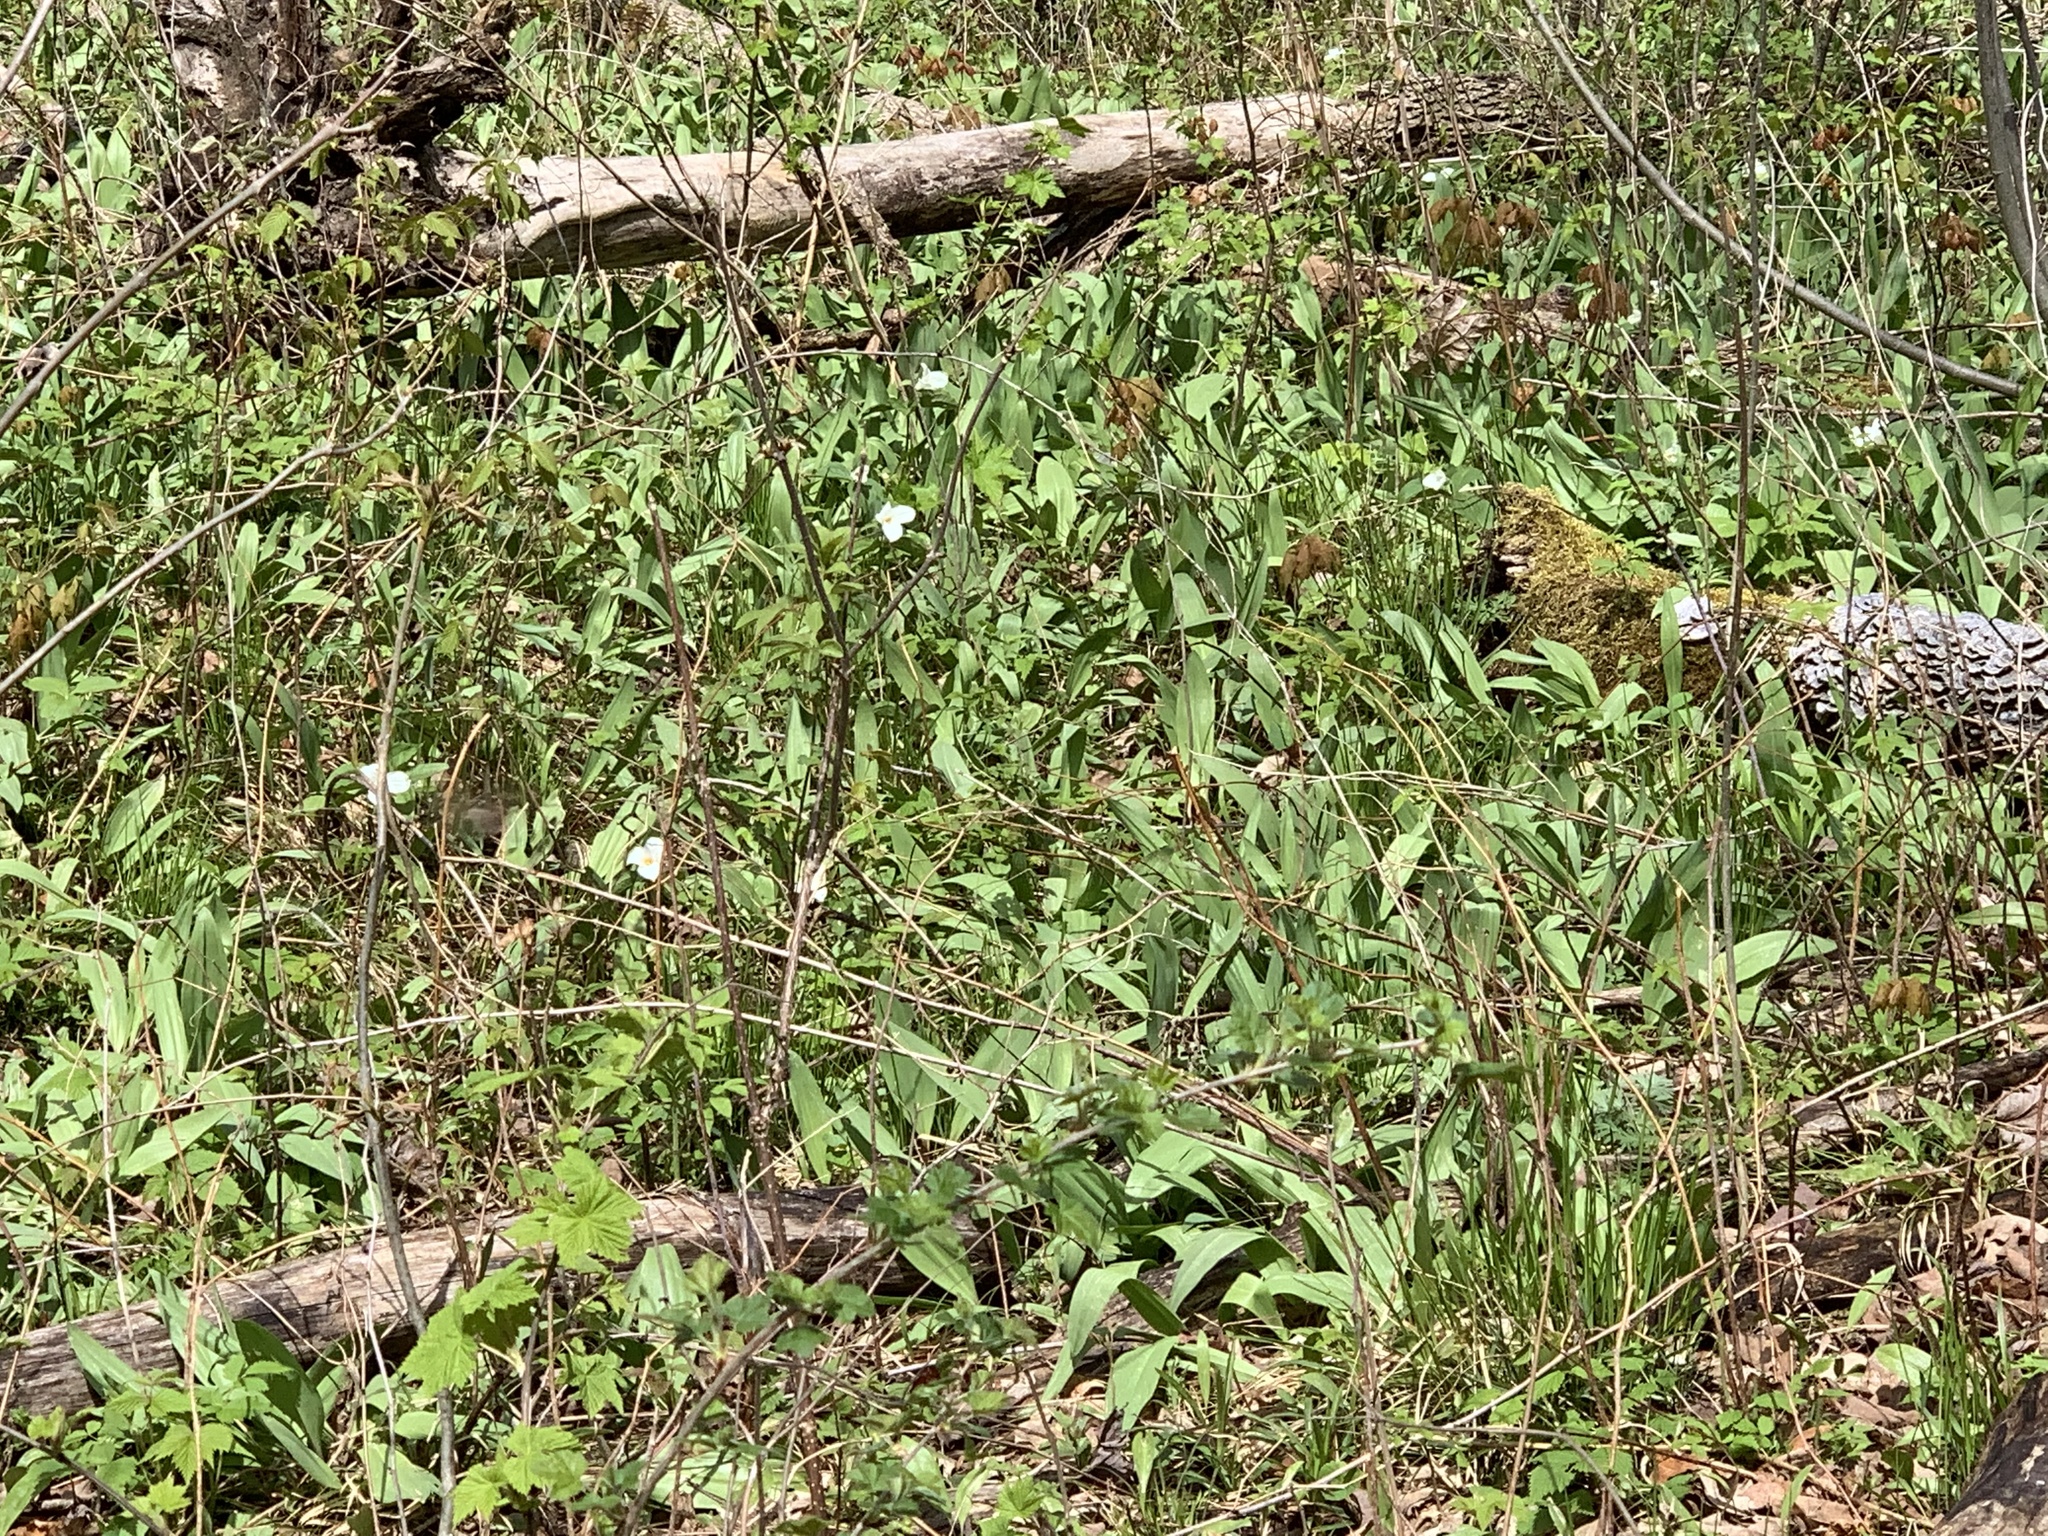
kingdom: Plantae
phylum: Tracheophyta
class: Liliopsida
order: Liliales
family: Melanthiaceae
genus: Trillium
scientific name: Trillium grandiflorum
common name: Great white trillium
